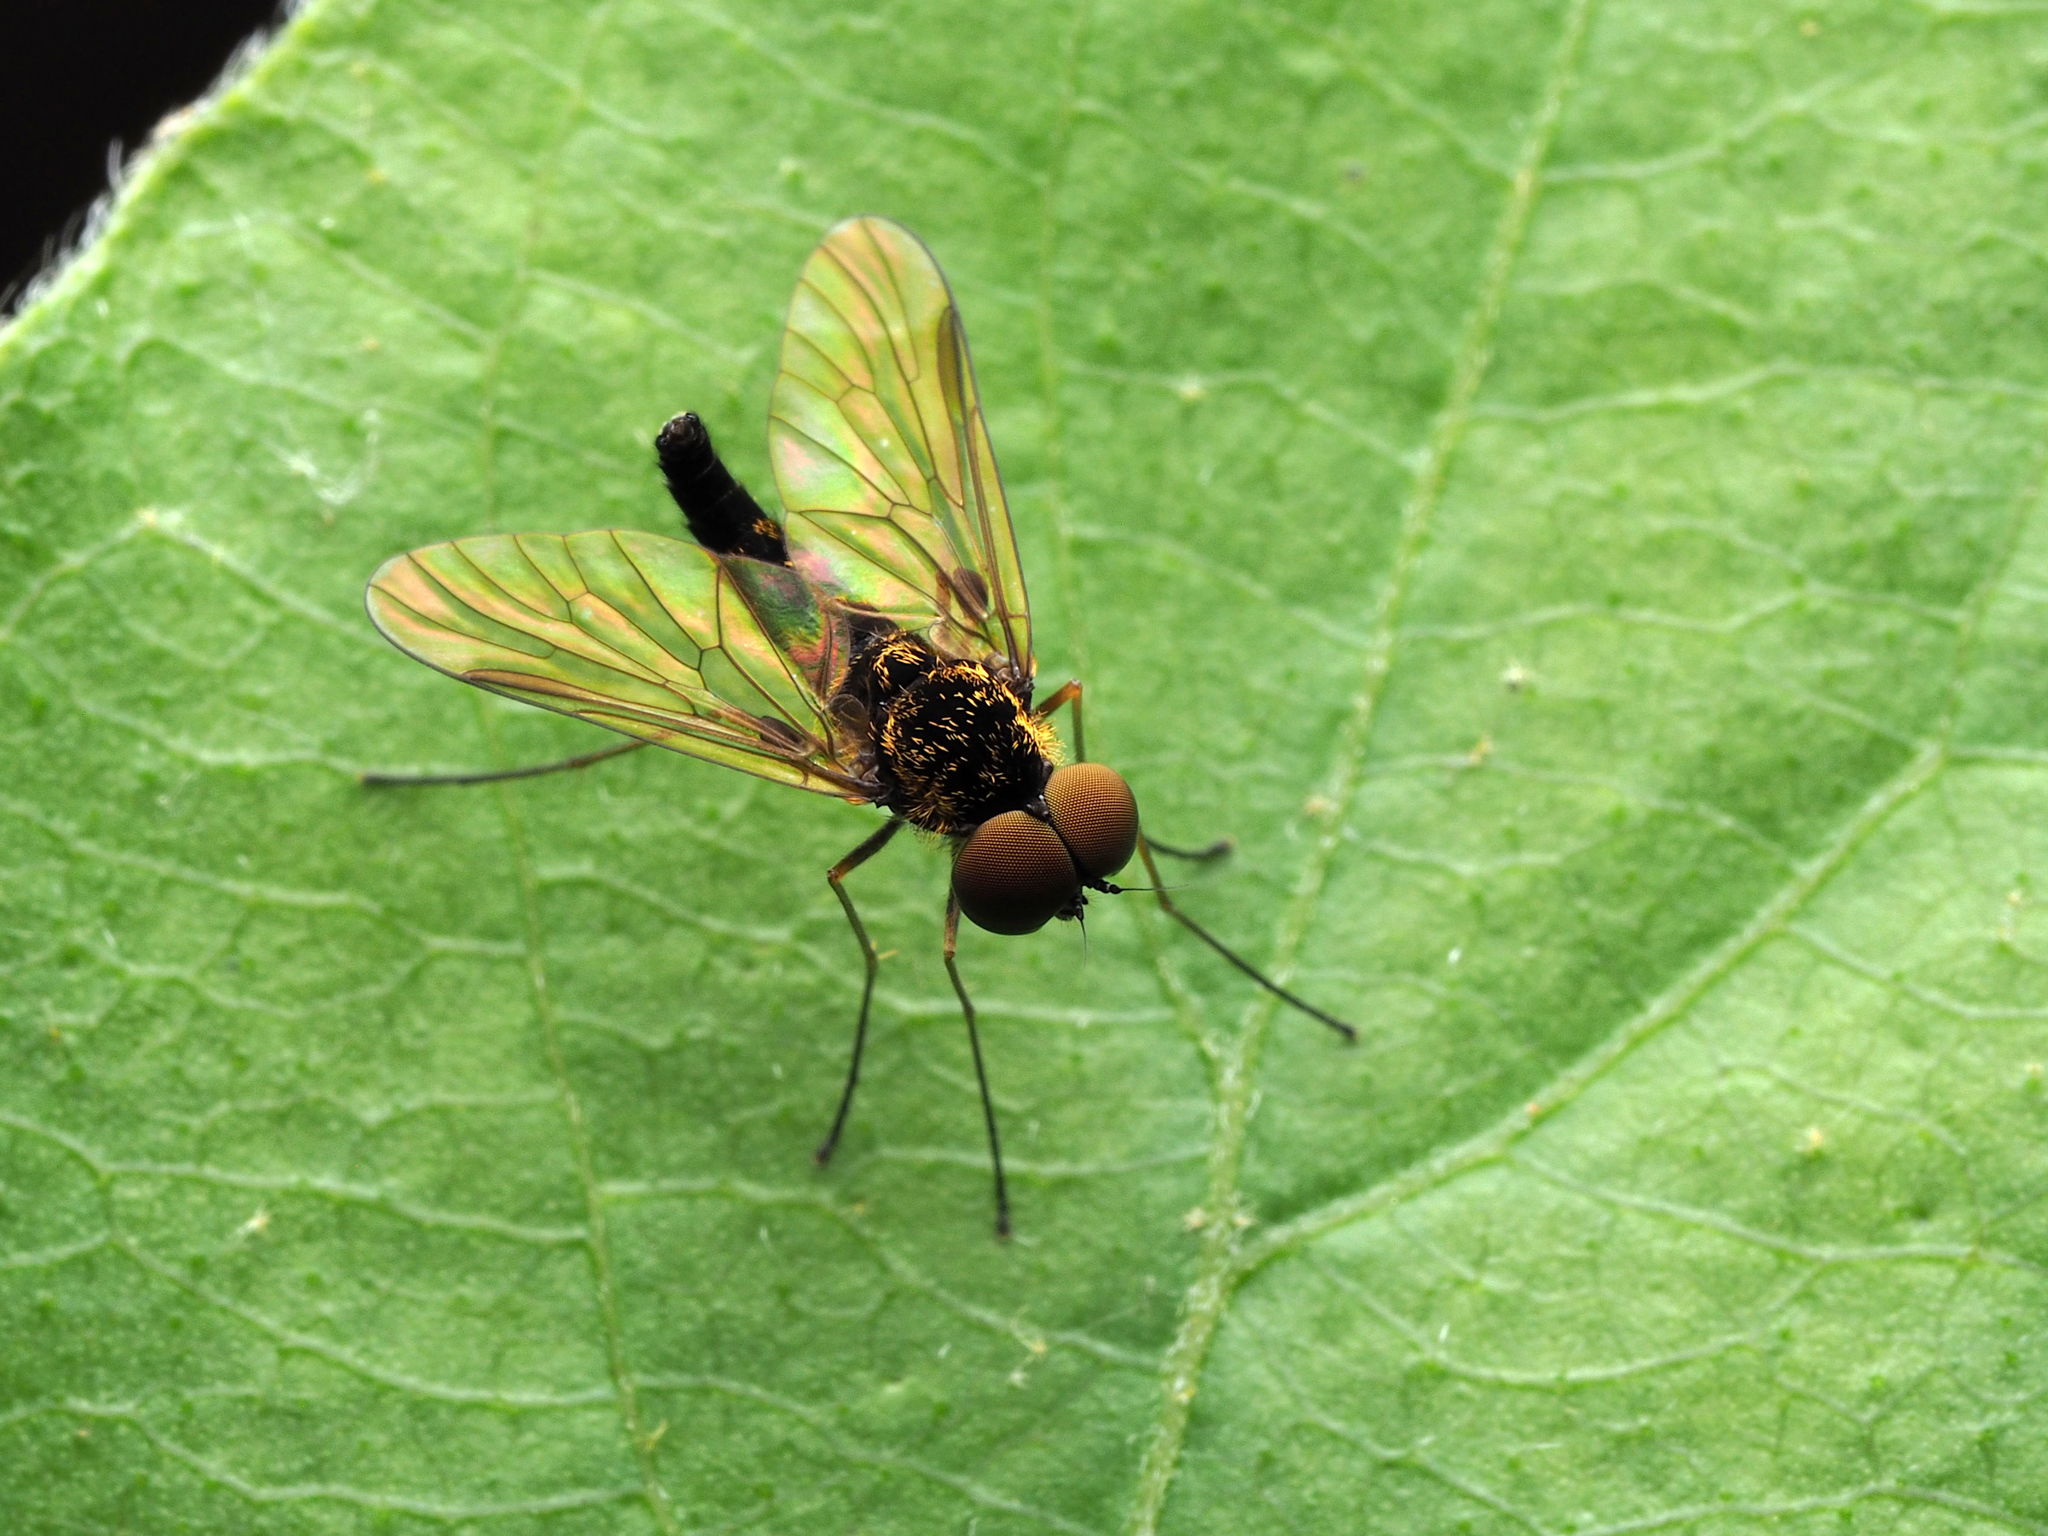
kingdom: Animalia
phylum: Arthropoda
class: Insecta
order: Diptera
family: Rhagionidae
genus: Chrysopilus
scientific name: Chrysopilus fasciatus
